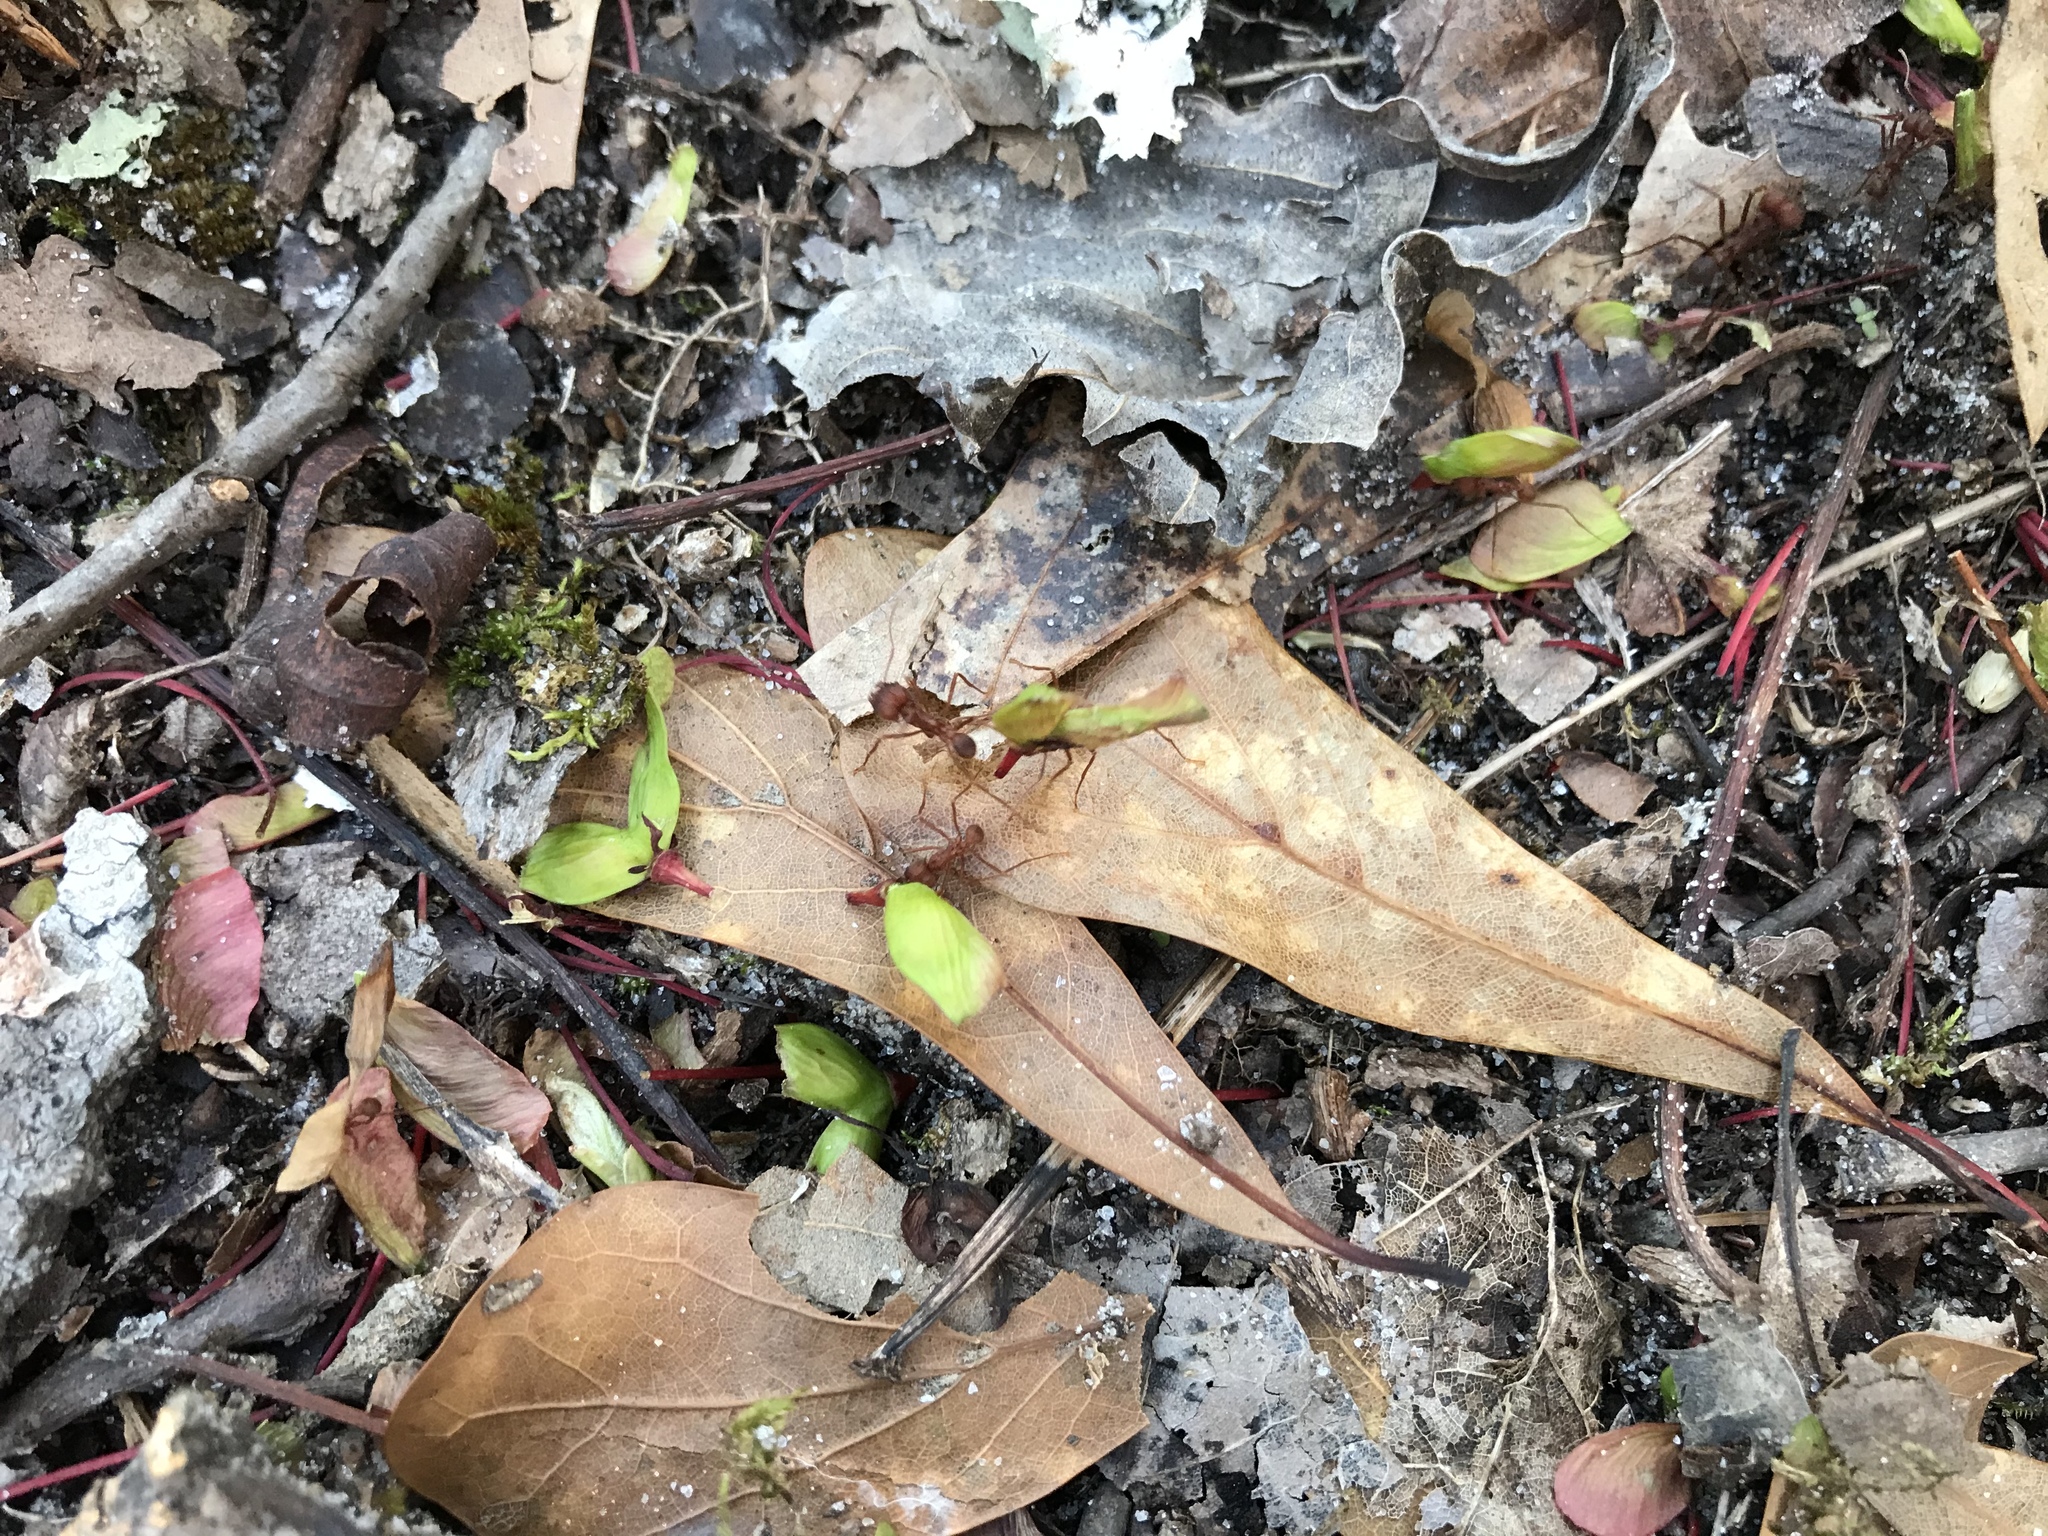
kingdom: Animalia
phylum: Arthropoda
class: Insecta
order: Hymenoptera
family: Formicidae
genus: Atta
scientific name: Atta texana
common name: Texas leafcutting ant
